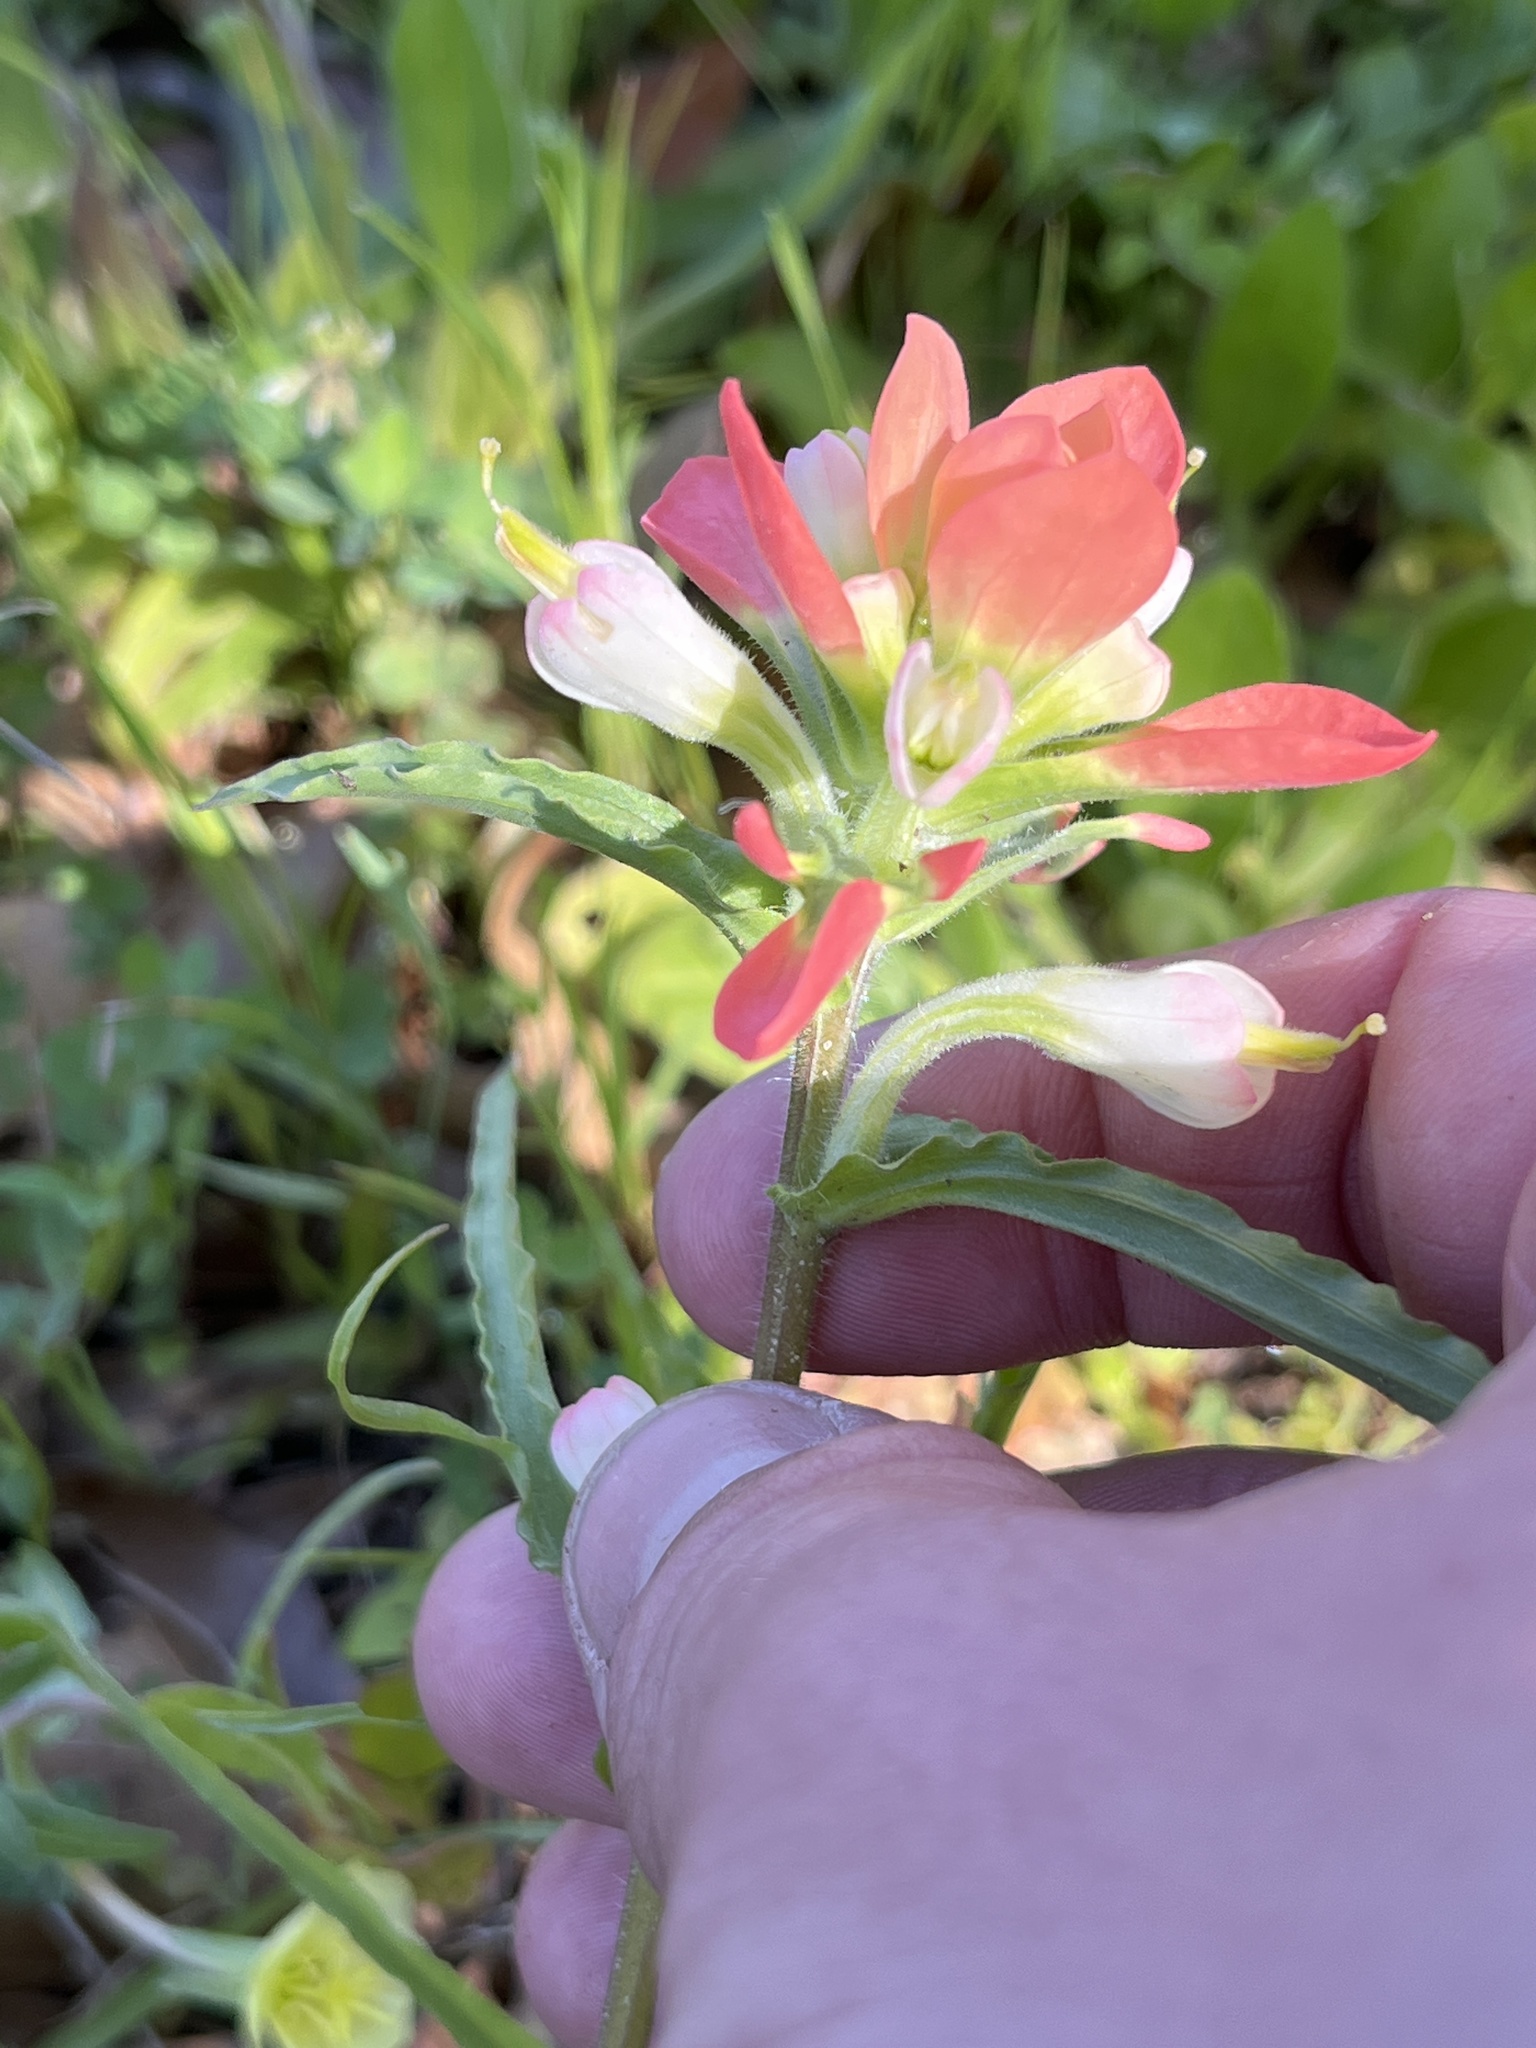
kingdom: Plantae
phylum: Tracheophyta
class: Magnoliopsida
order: Lamiales
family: Orobanchaceae
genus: Castilleja
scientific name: Castilleja indivisa
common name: Texas paintbrush
